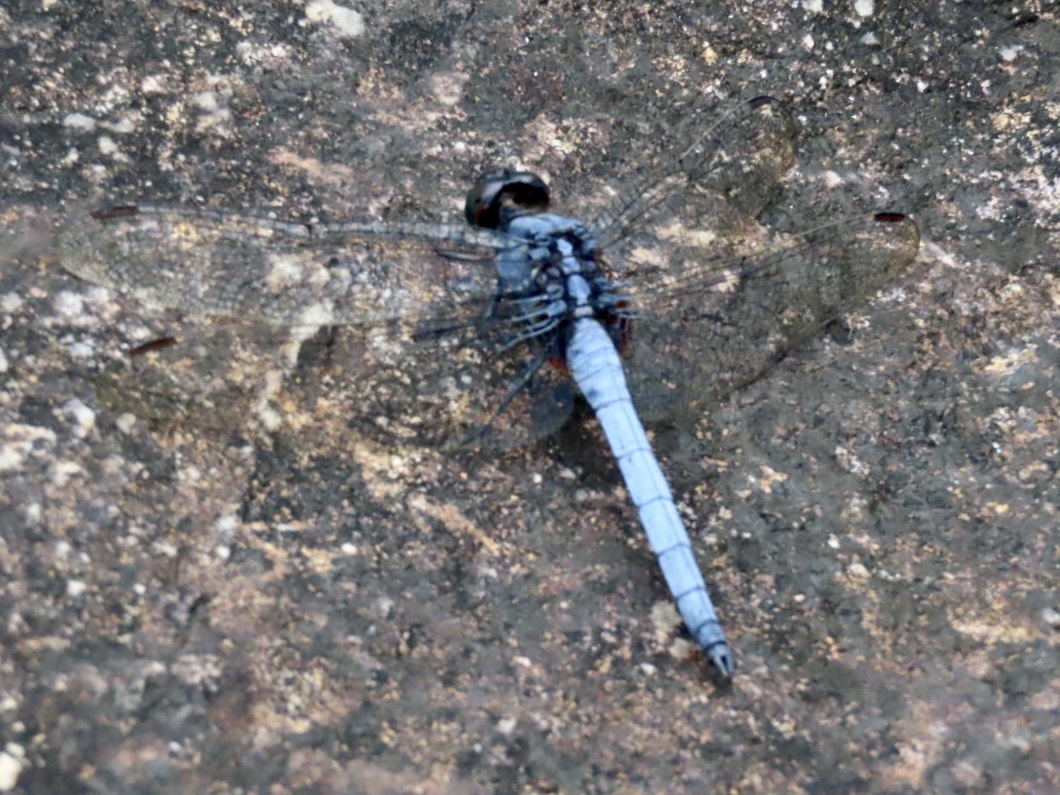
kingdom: Animalia
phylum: Arthropoda
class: Insecta
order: Odonata
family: Libellulidae
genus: Orthetrum
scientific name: Orthetrum glaucum
